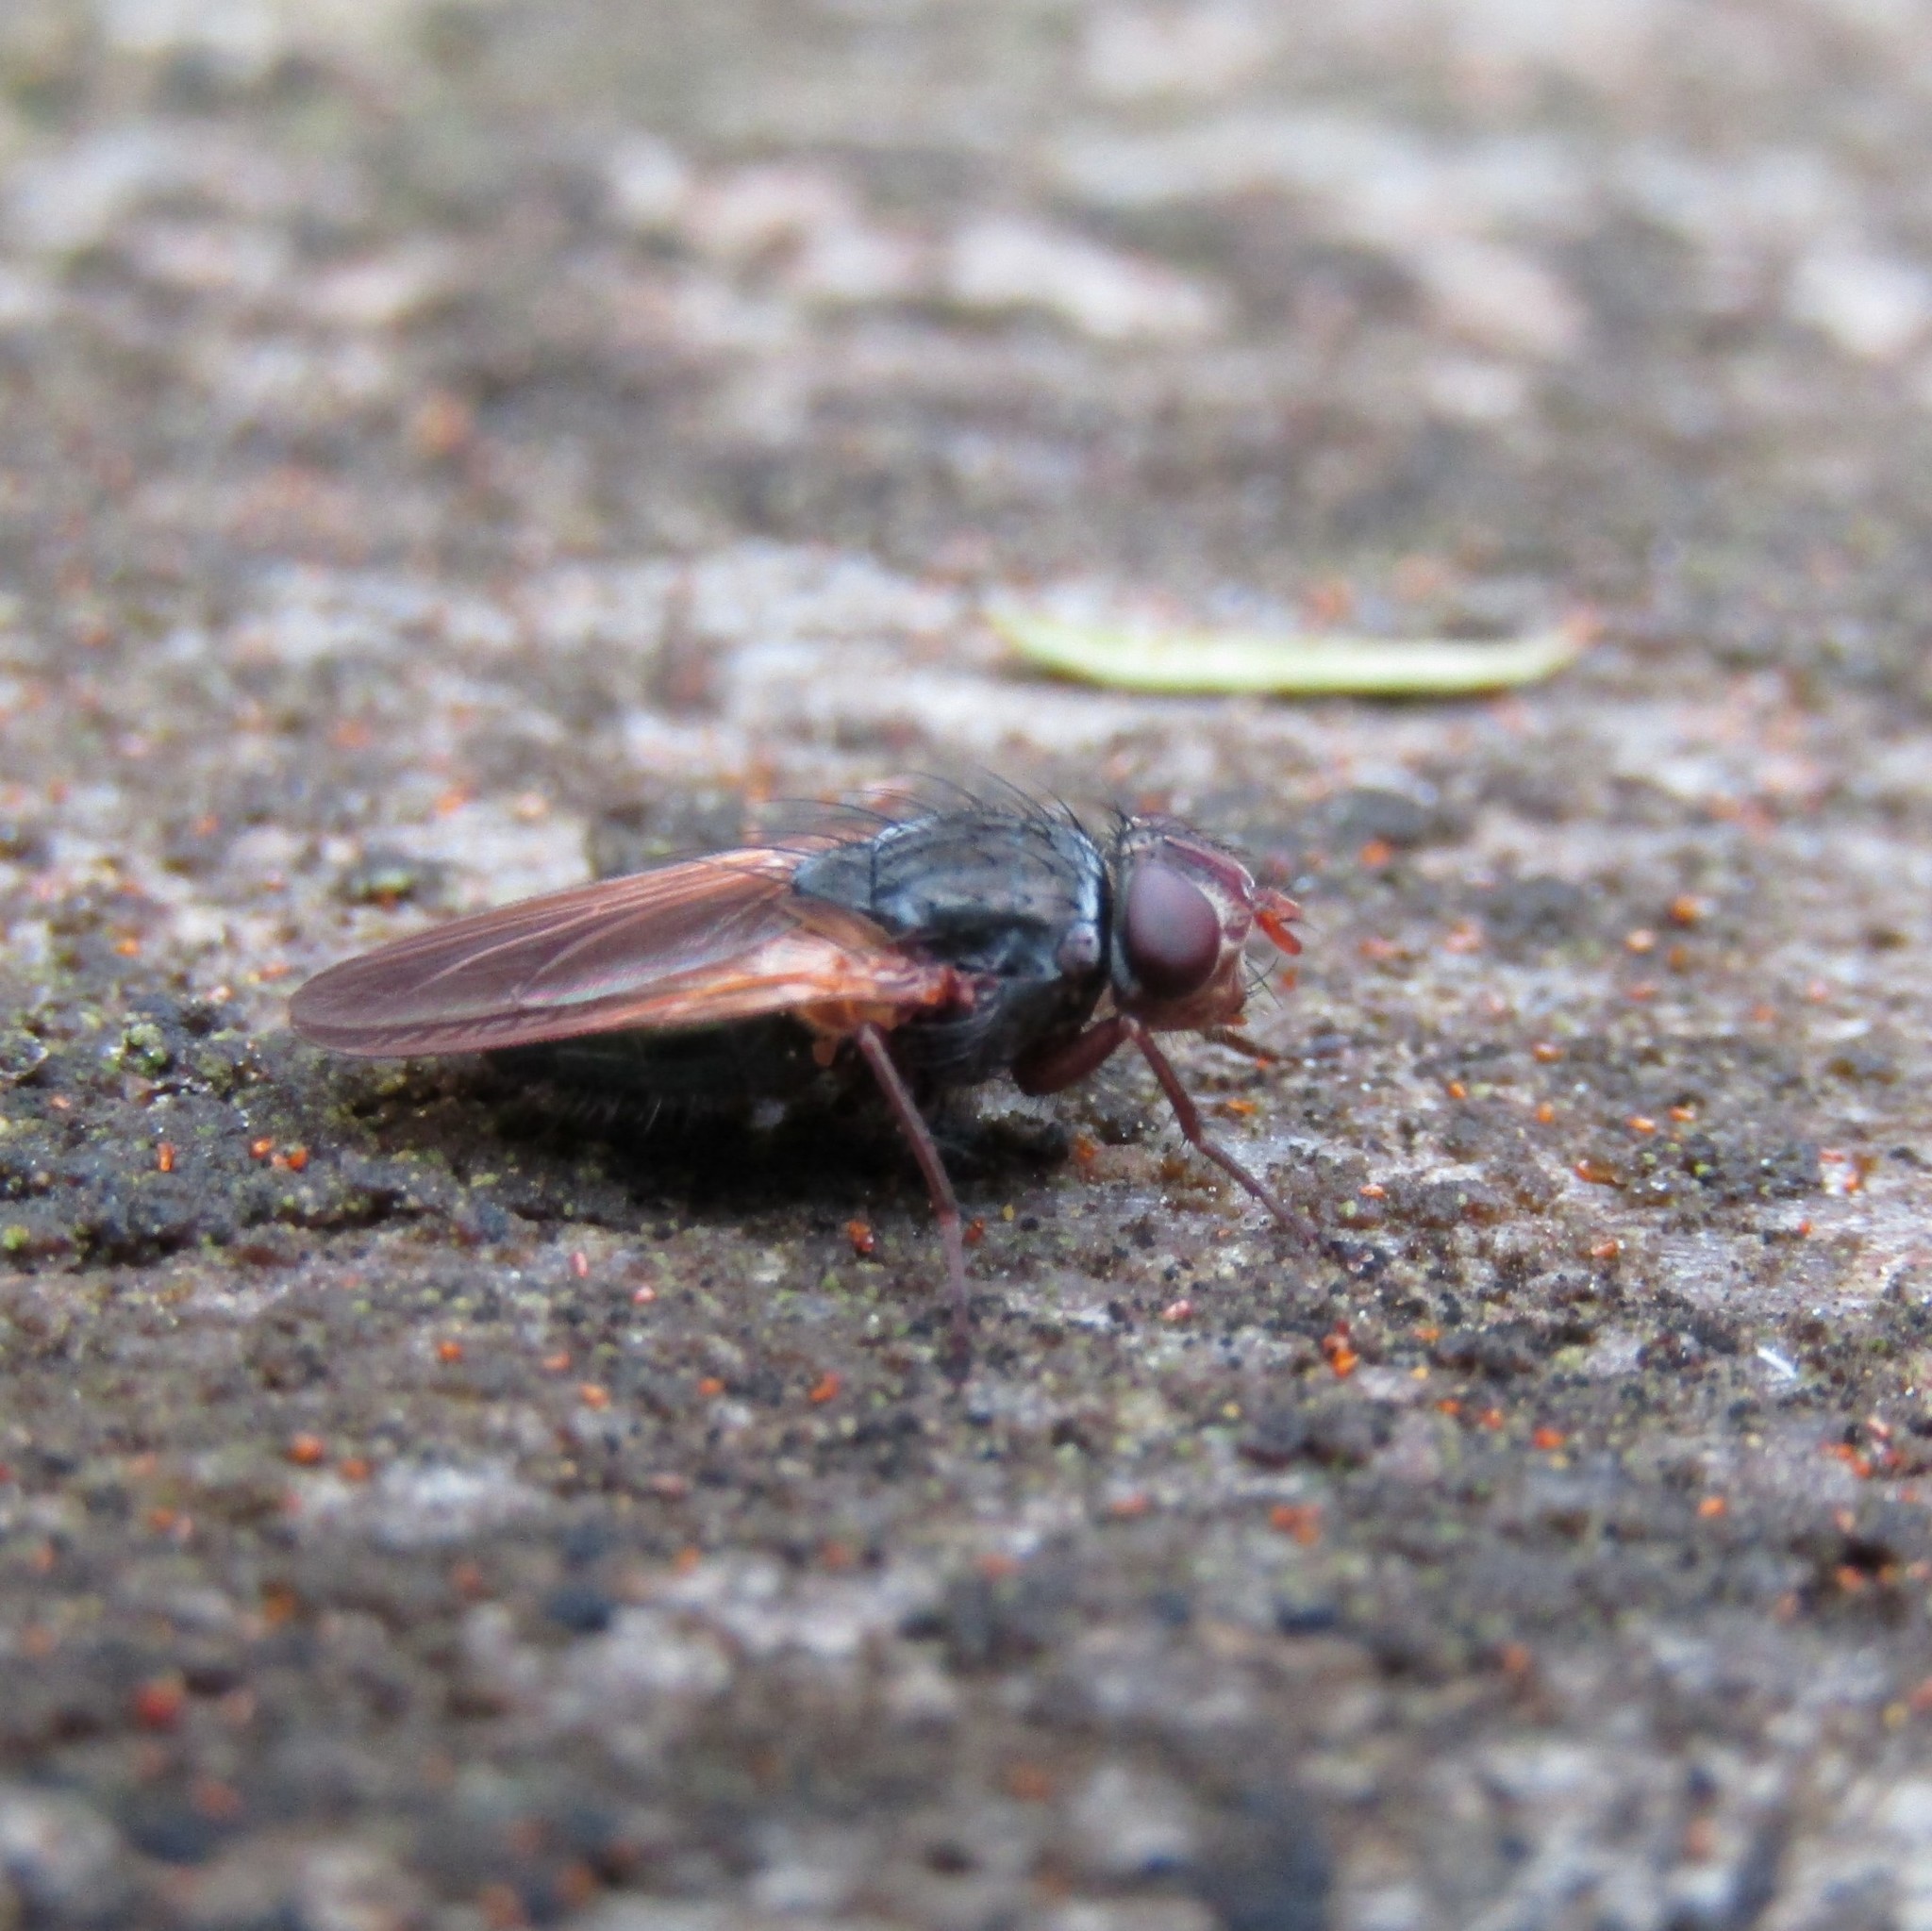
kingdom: Animalia
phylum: Arthropoda
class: Insecta
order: Diptera
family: Polleniidae
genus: Pollenia
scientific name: Pollenia uniseta
